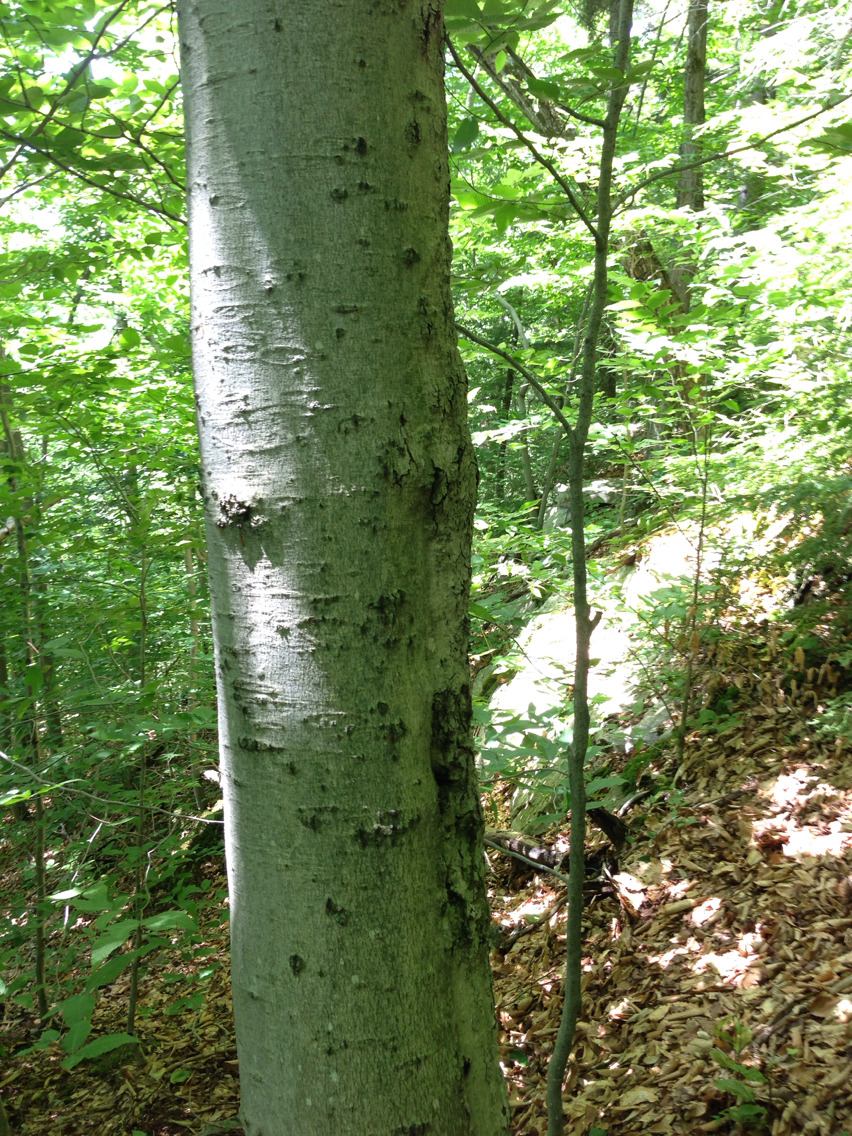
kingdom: Plantae
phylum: Tracheophyta
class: Magnoliopsida
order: Fagales
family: Fagaceae
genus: Fagus
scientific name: Fagus grandifolia
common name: American beech
